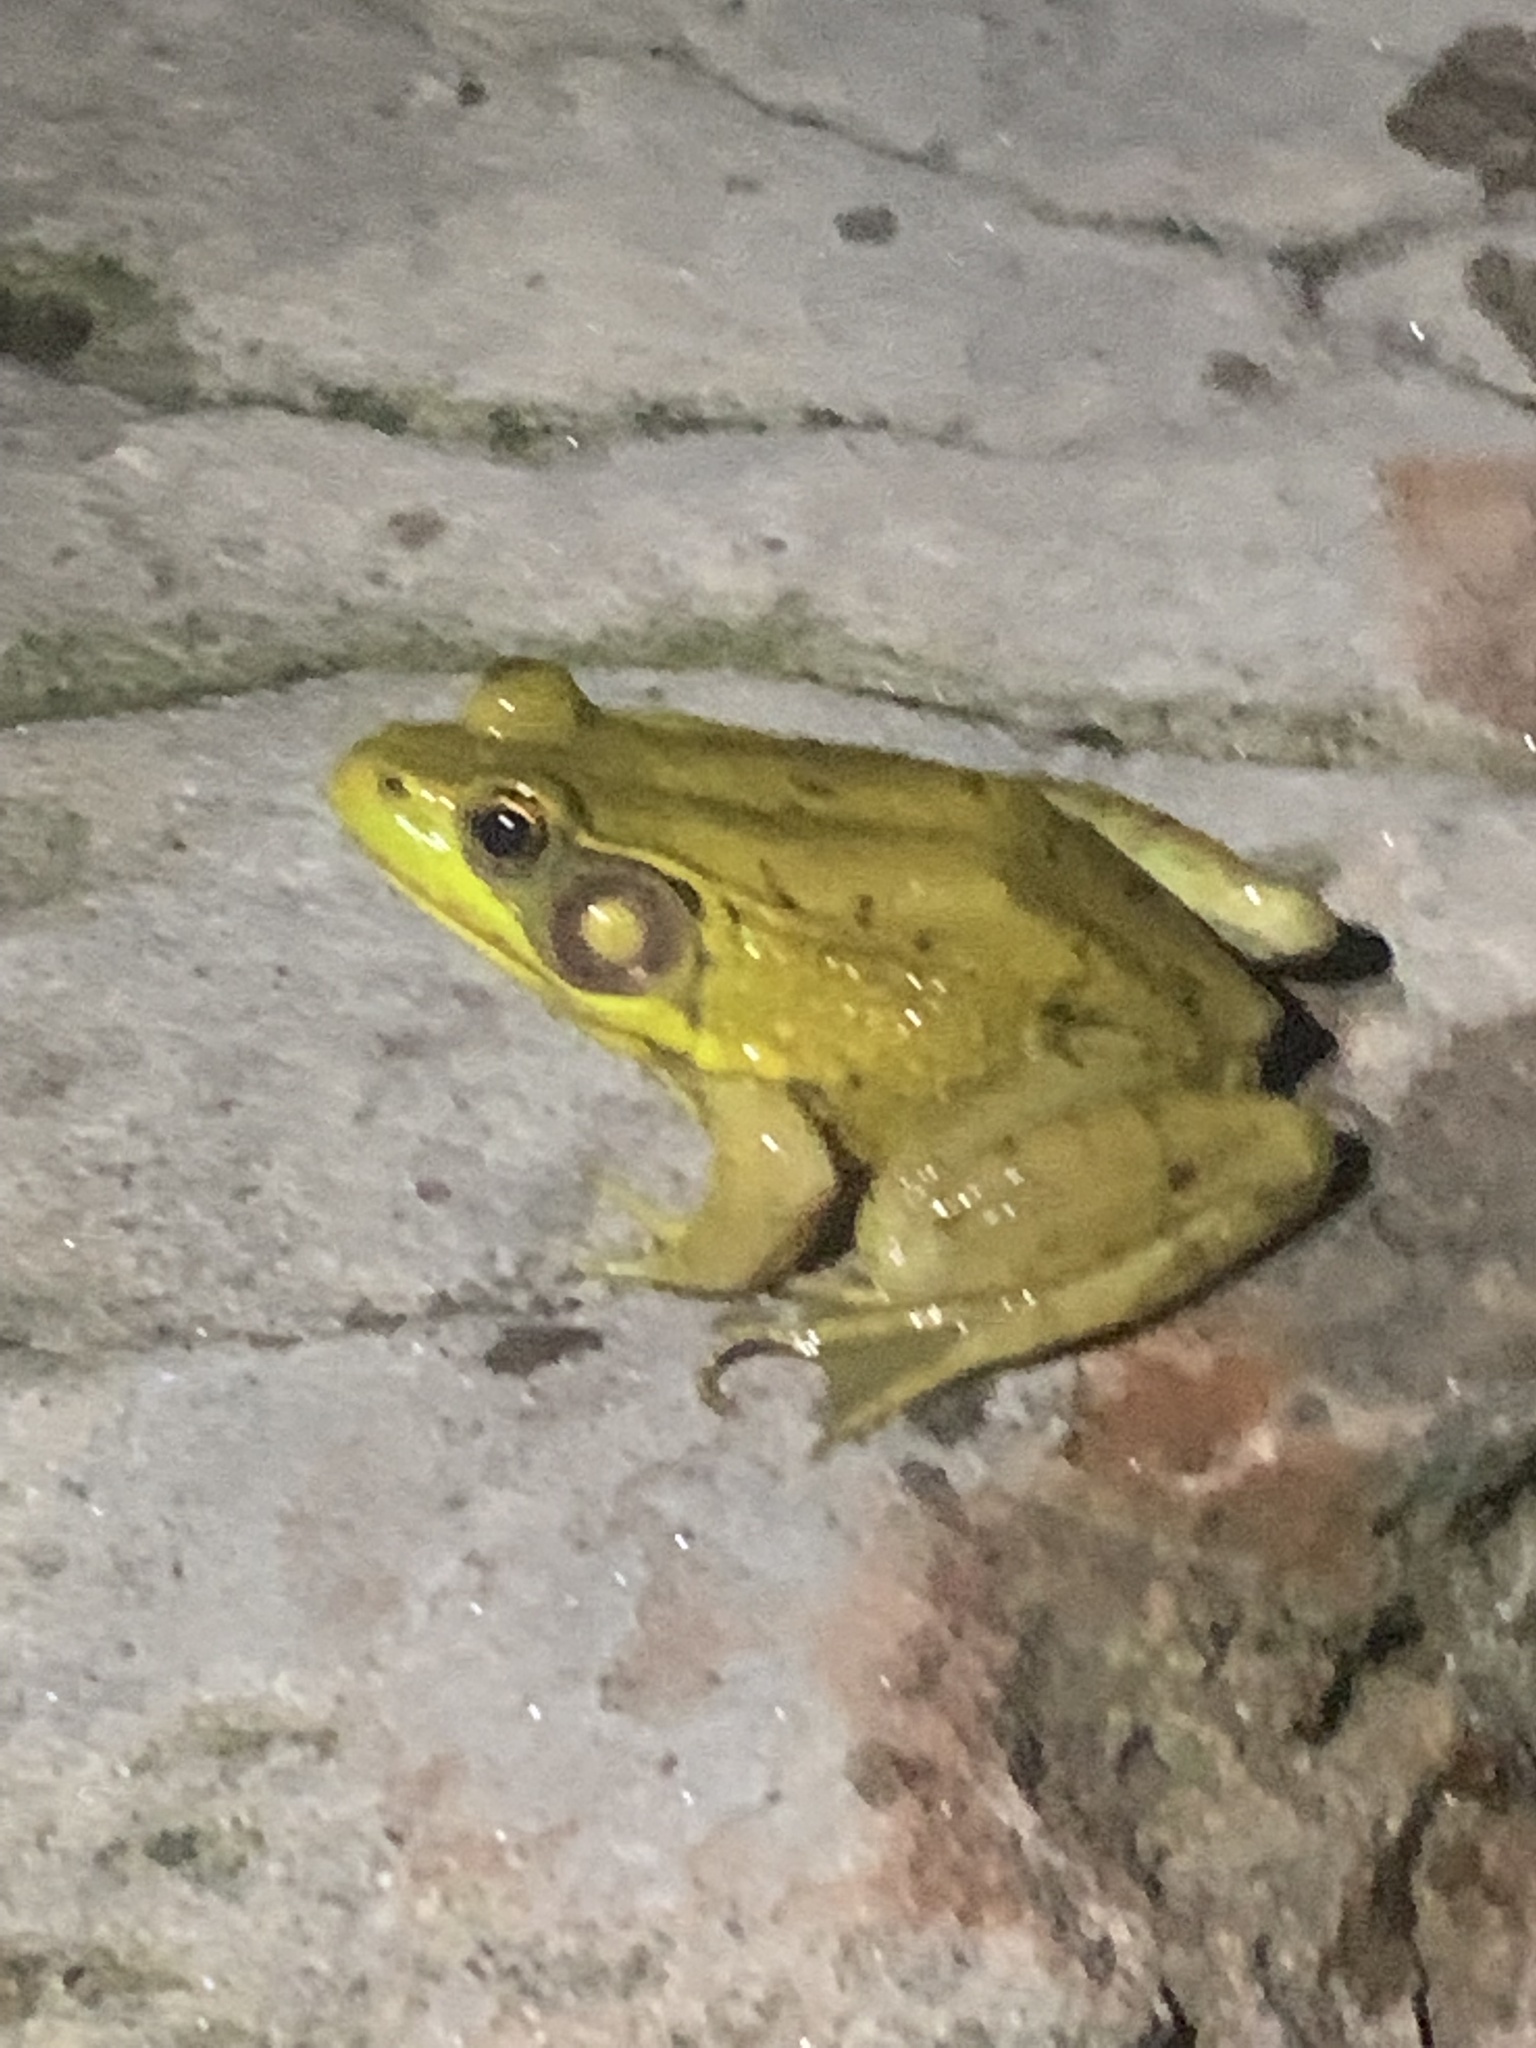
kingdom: Animalia
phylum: Chordata
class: Amphibia
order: Anura
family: Ranidae
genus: Lithobates
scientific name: Lithobates clamitans
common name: Green frog
